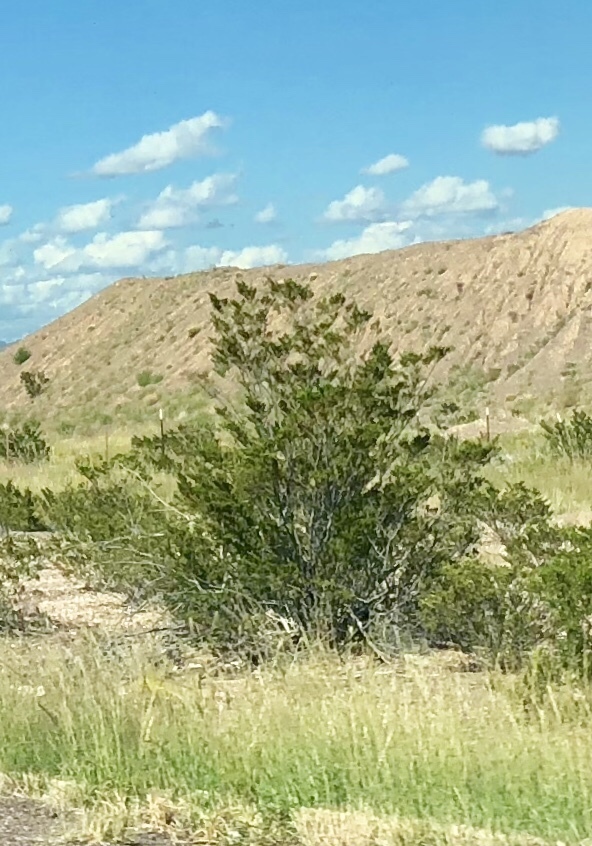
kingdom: Plantae
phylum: Tracheophyta
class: Magnoliopsida
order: Zygophyllales
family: Zygophyllaceae
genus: Larrea
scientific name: Larrea tridentata
